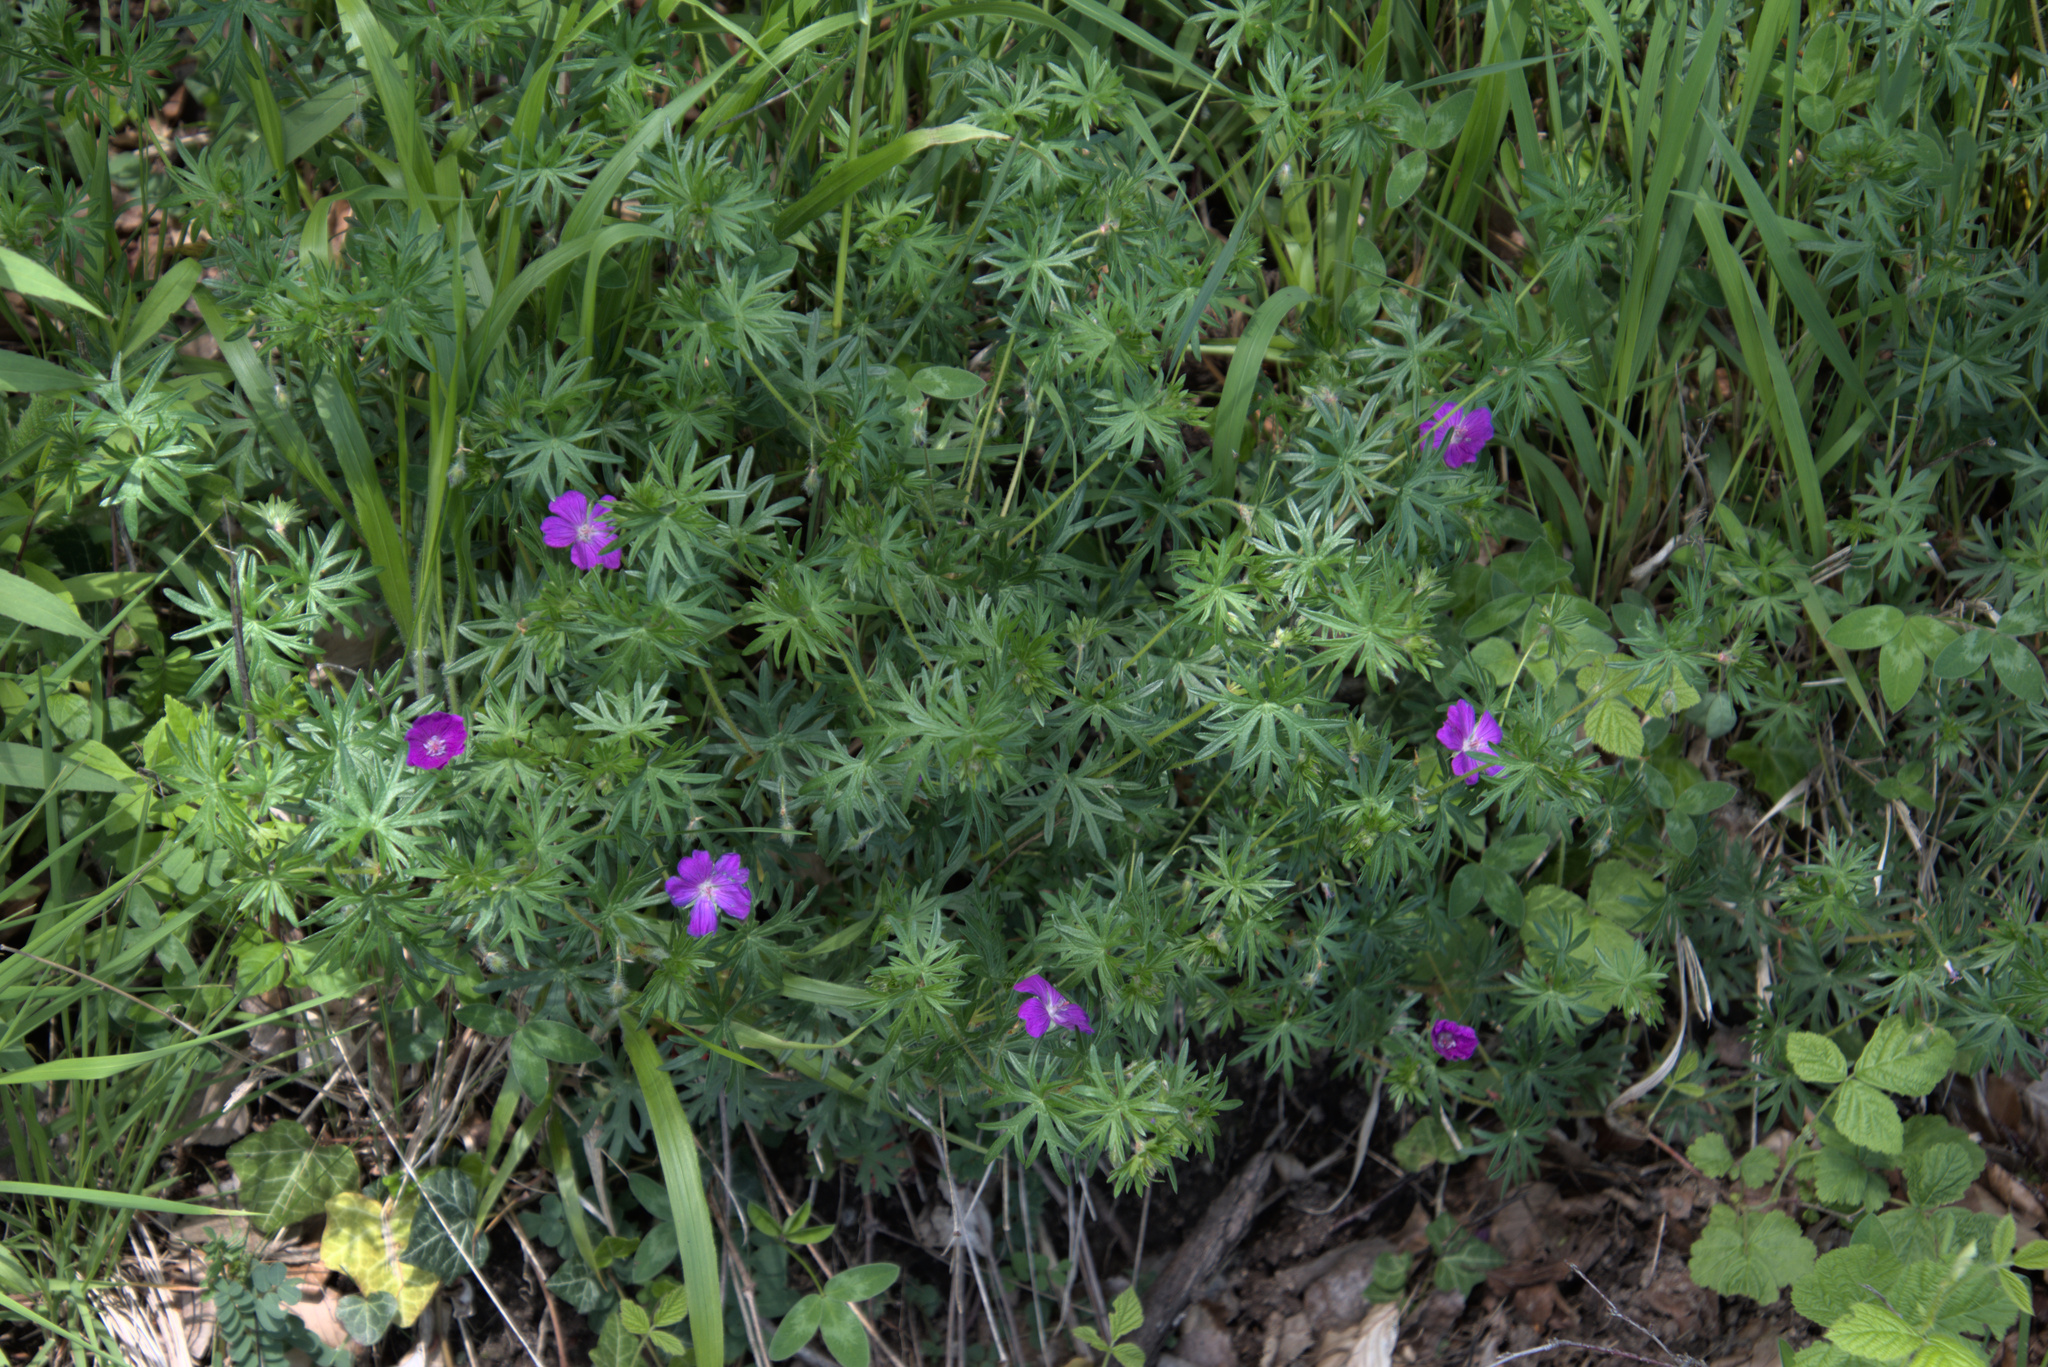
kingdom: Plantae
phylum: Tracheophyta
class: Magnoliopsida
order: Geraniales
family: Geraniaceae
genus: Geranium
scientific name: Geranium sanguineum
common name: Bloody crane's-bill
